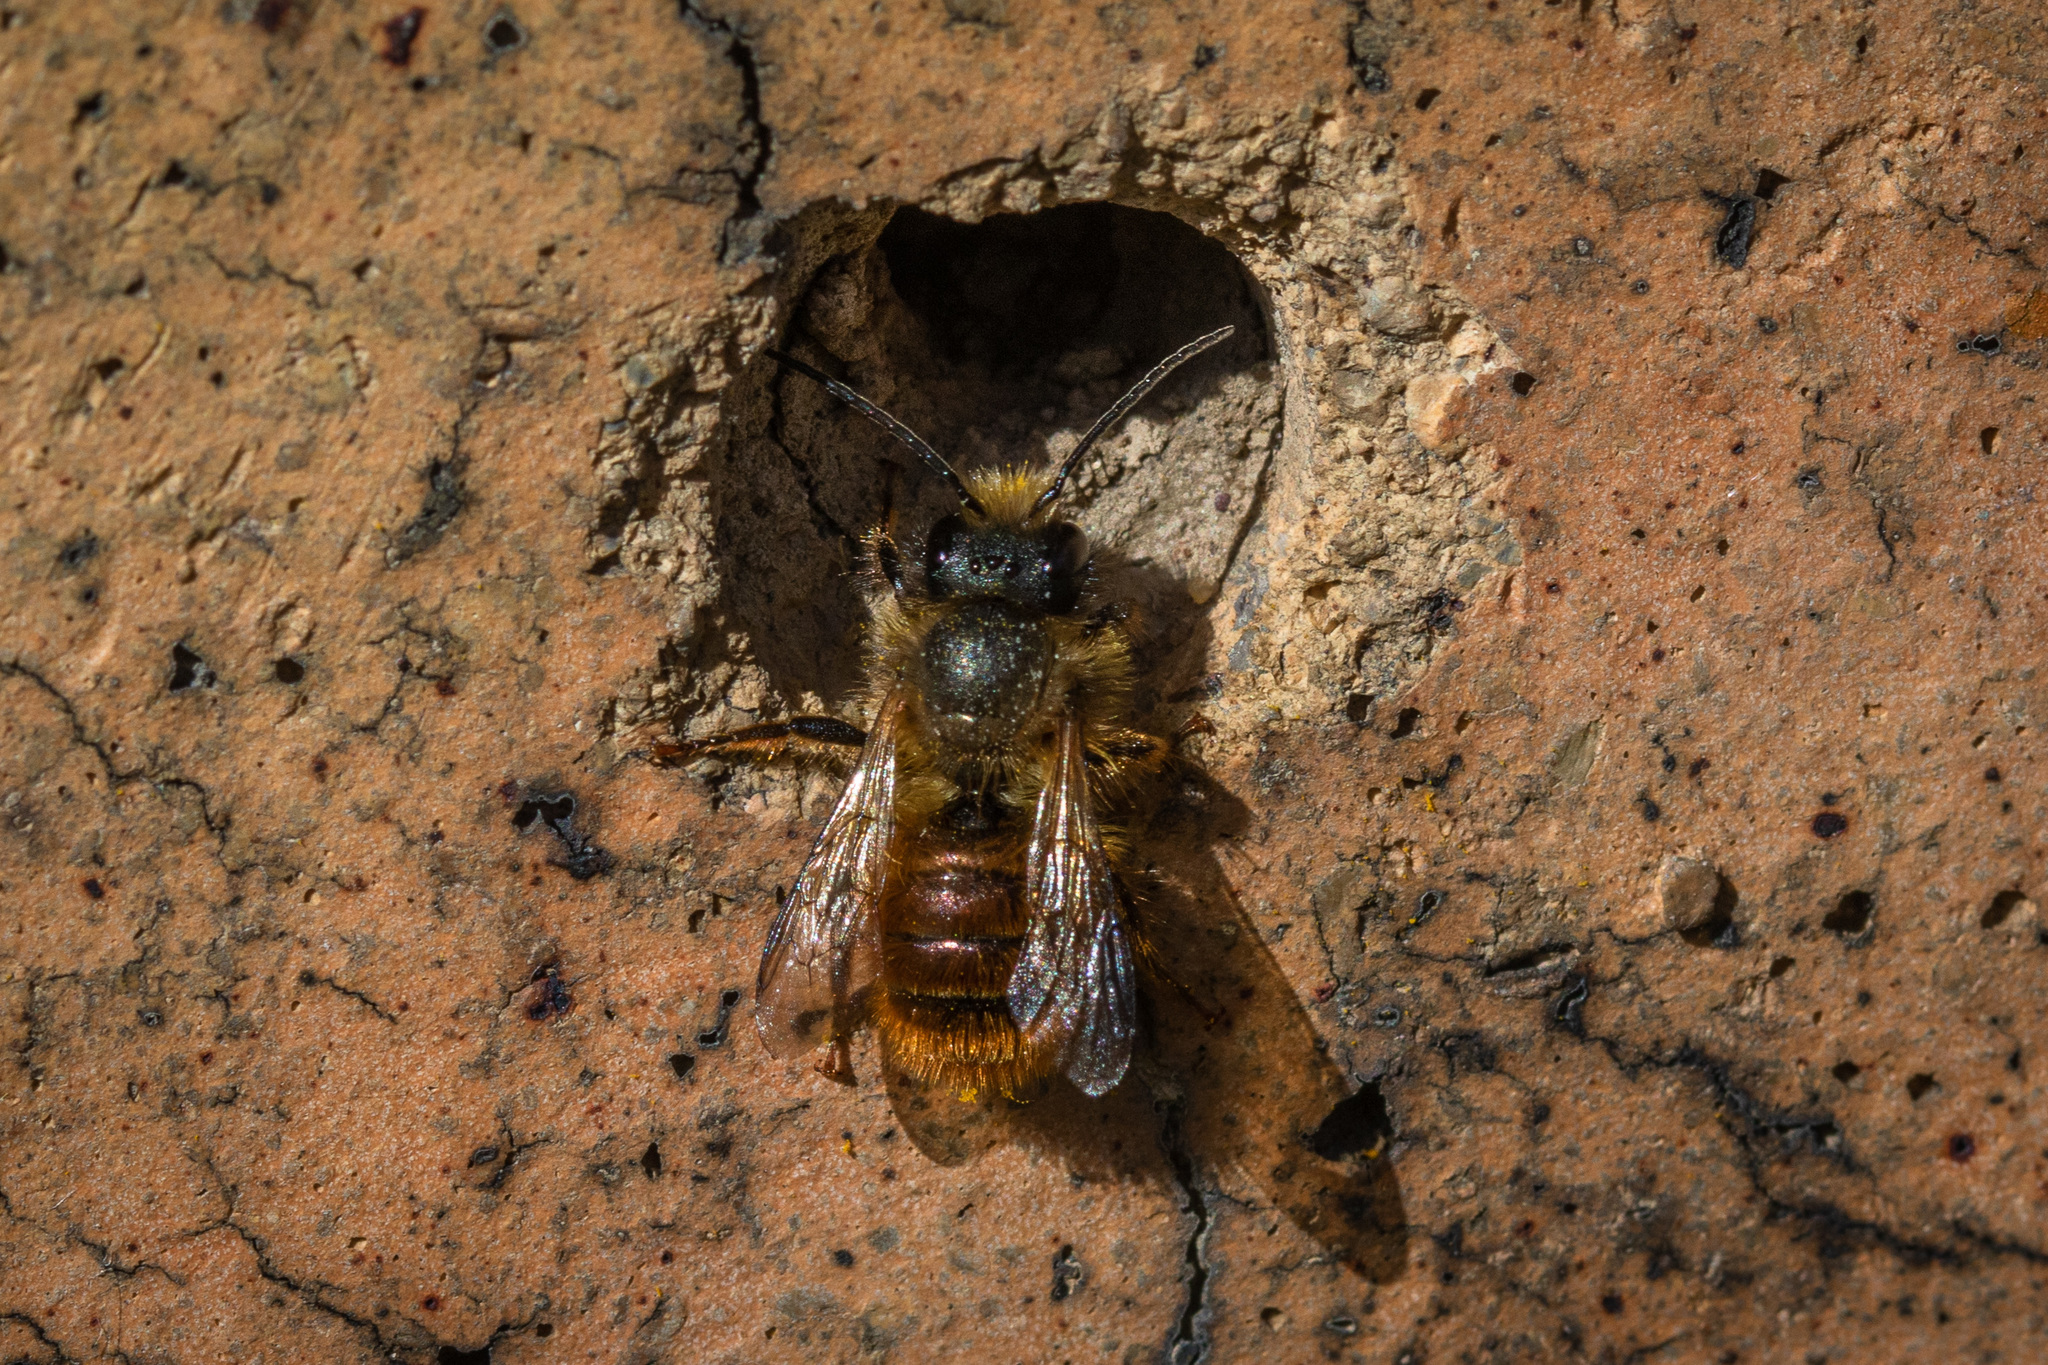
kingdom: Animalia
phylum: Arthropoda
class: Insecta
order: Hymenoptera
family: Megachilidae
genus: Osmia
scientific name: Osmia bicornis
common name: Red mason bee
